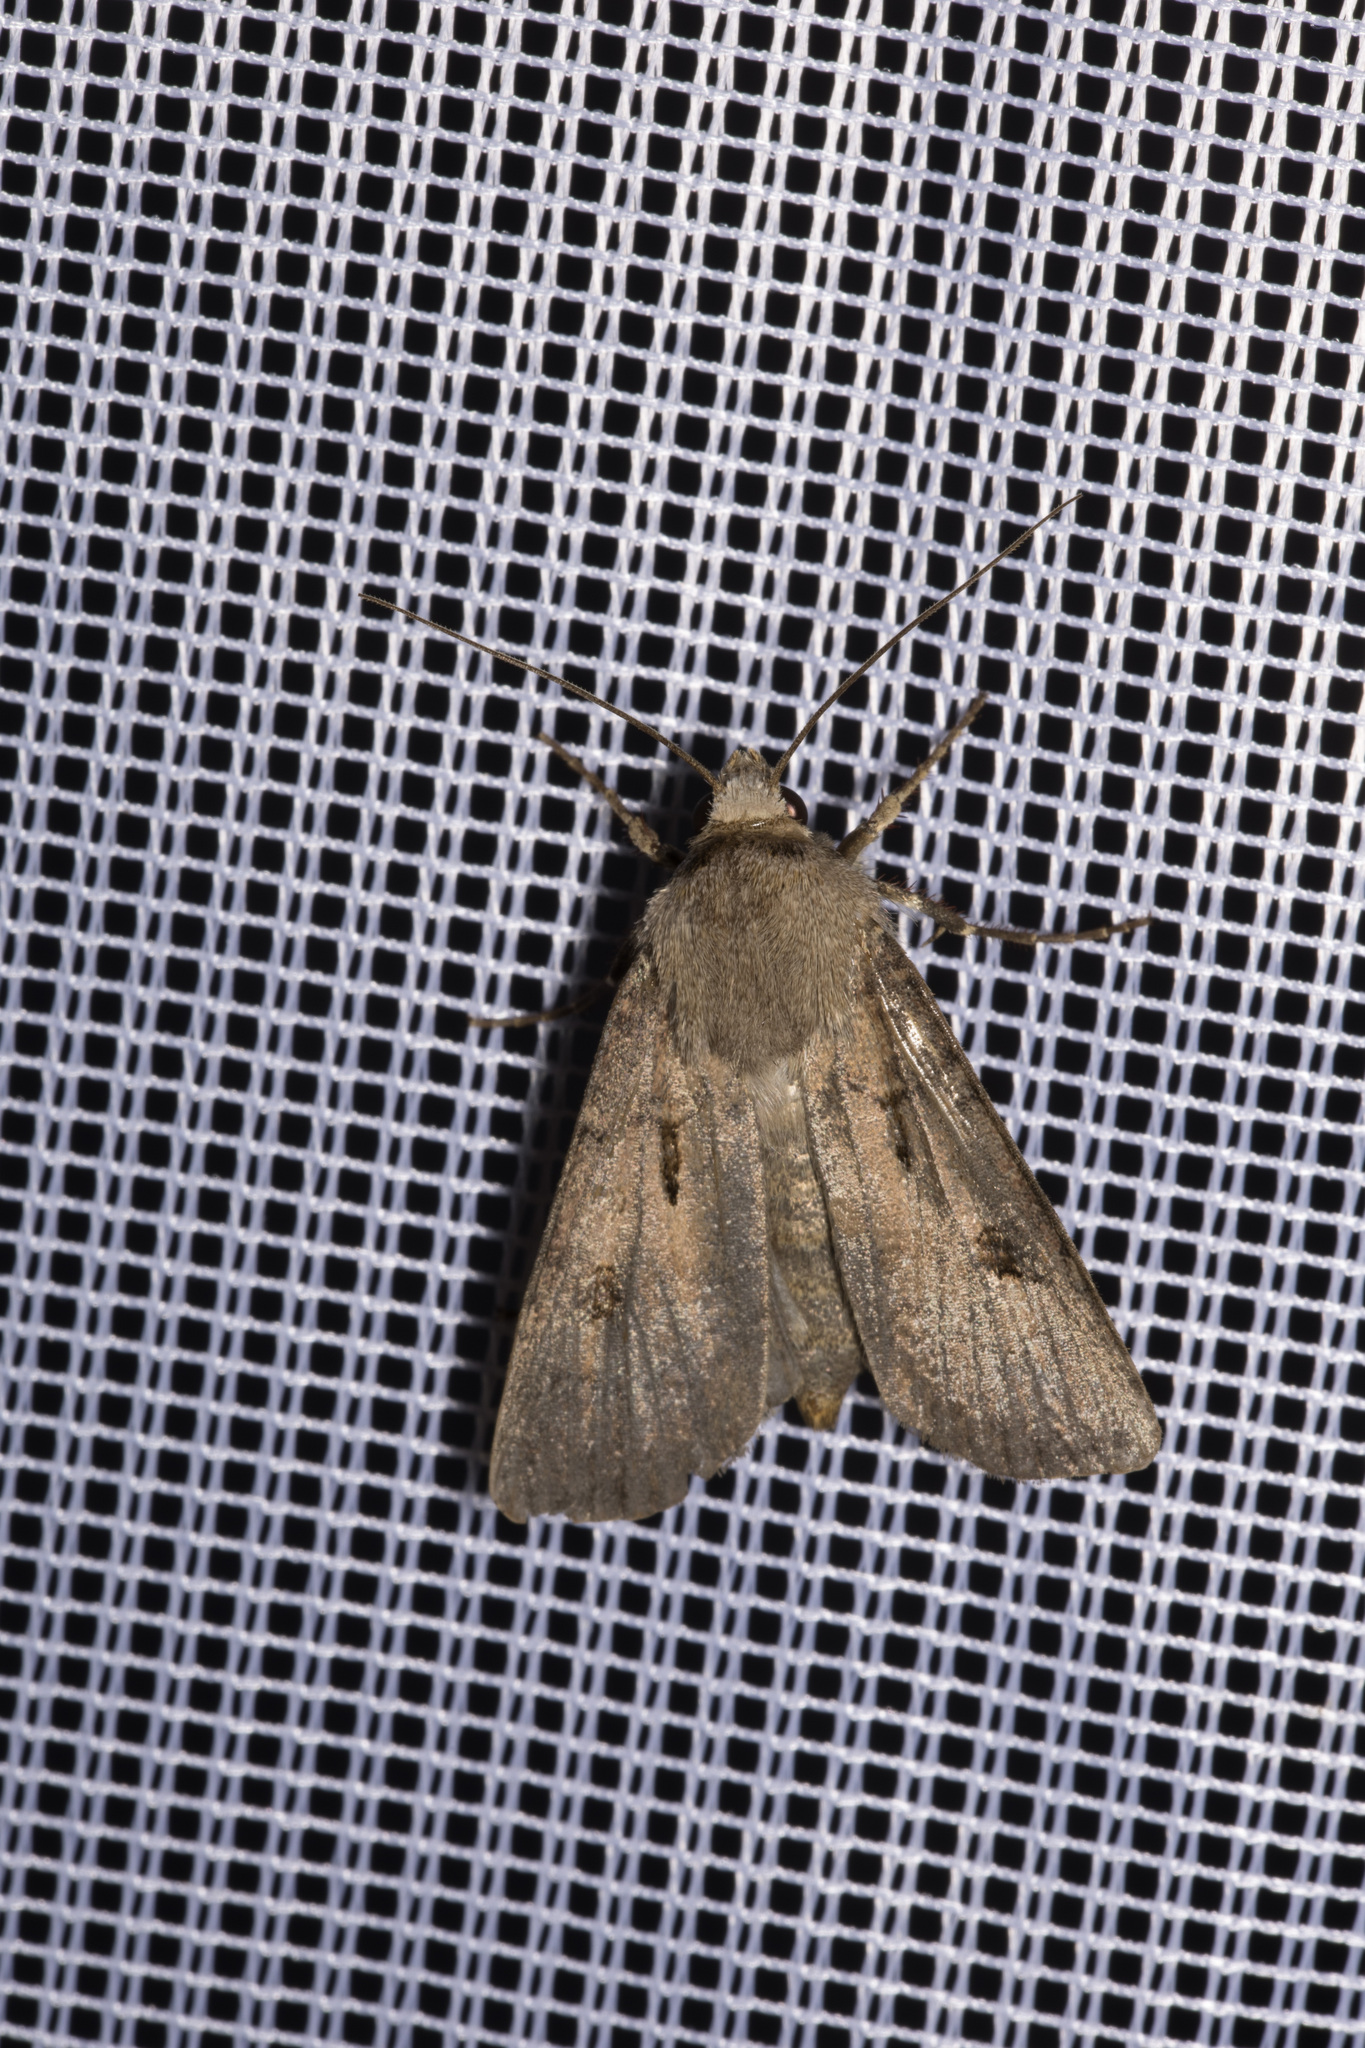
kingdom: Animalia
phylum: Arthropoda
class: Insecta
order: Lepidoptera
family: Noctuidae
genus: Agrotis
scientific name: Agrotis exclamationis
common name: Heart and dart
